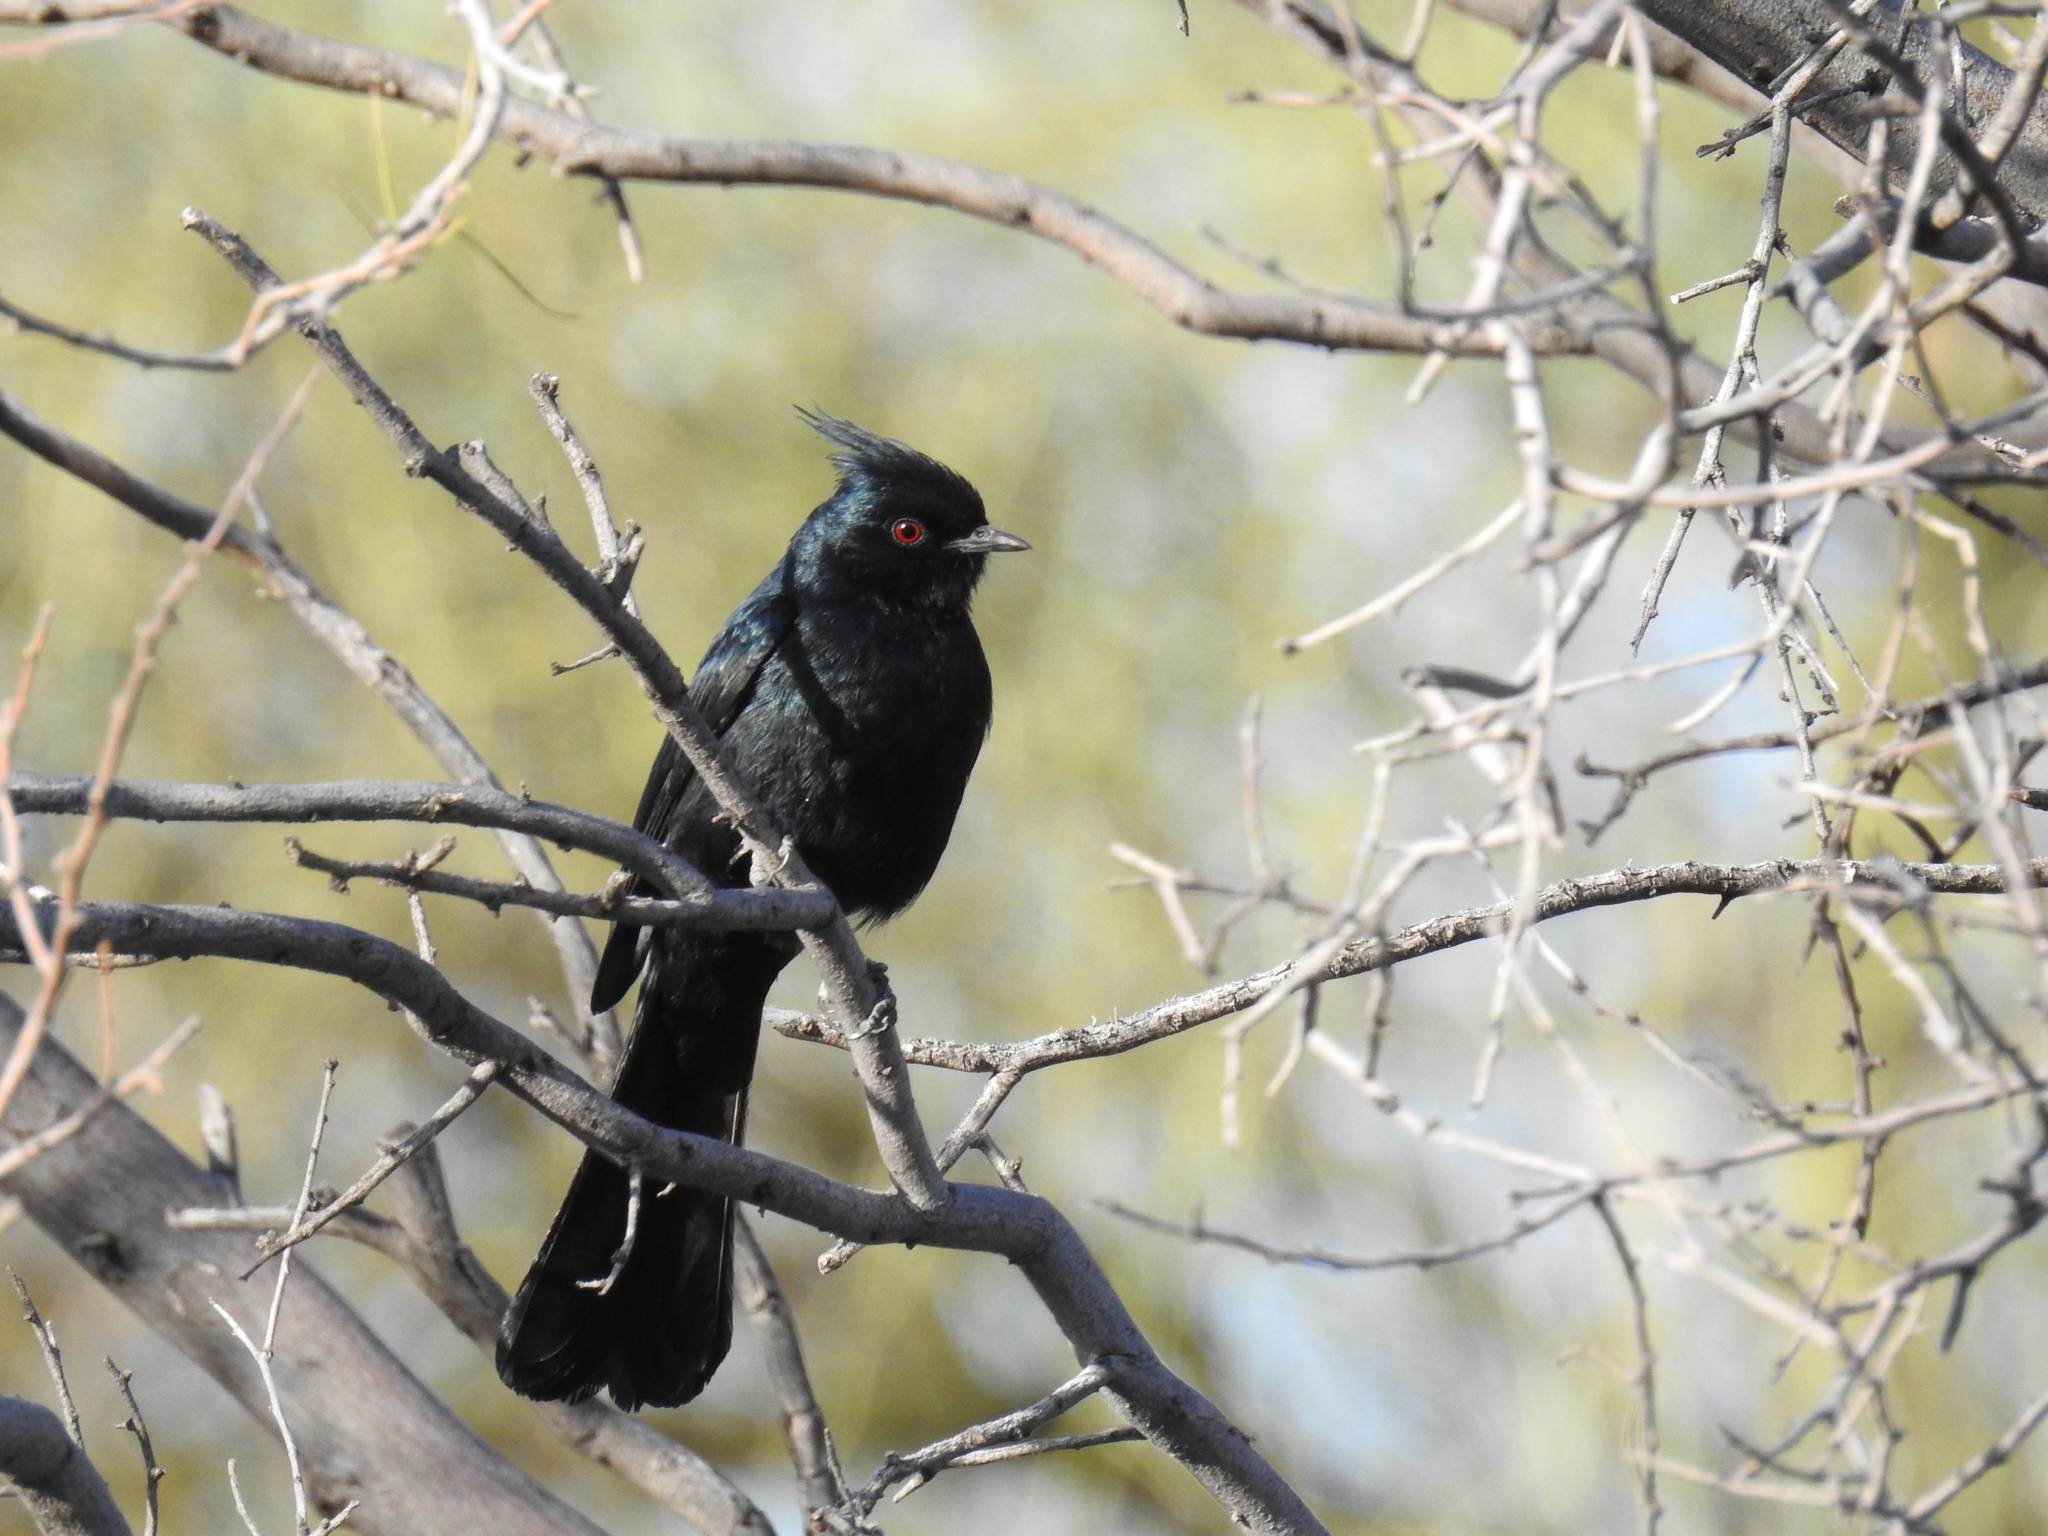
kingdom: Animalia
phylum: Chordata
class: Aves
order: Passeriformes
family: Ptilogonatidae
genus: Phainopepla
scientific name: Phainopepla nitens
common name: Phainopepla
